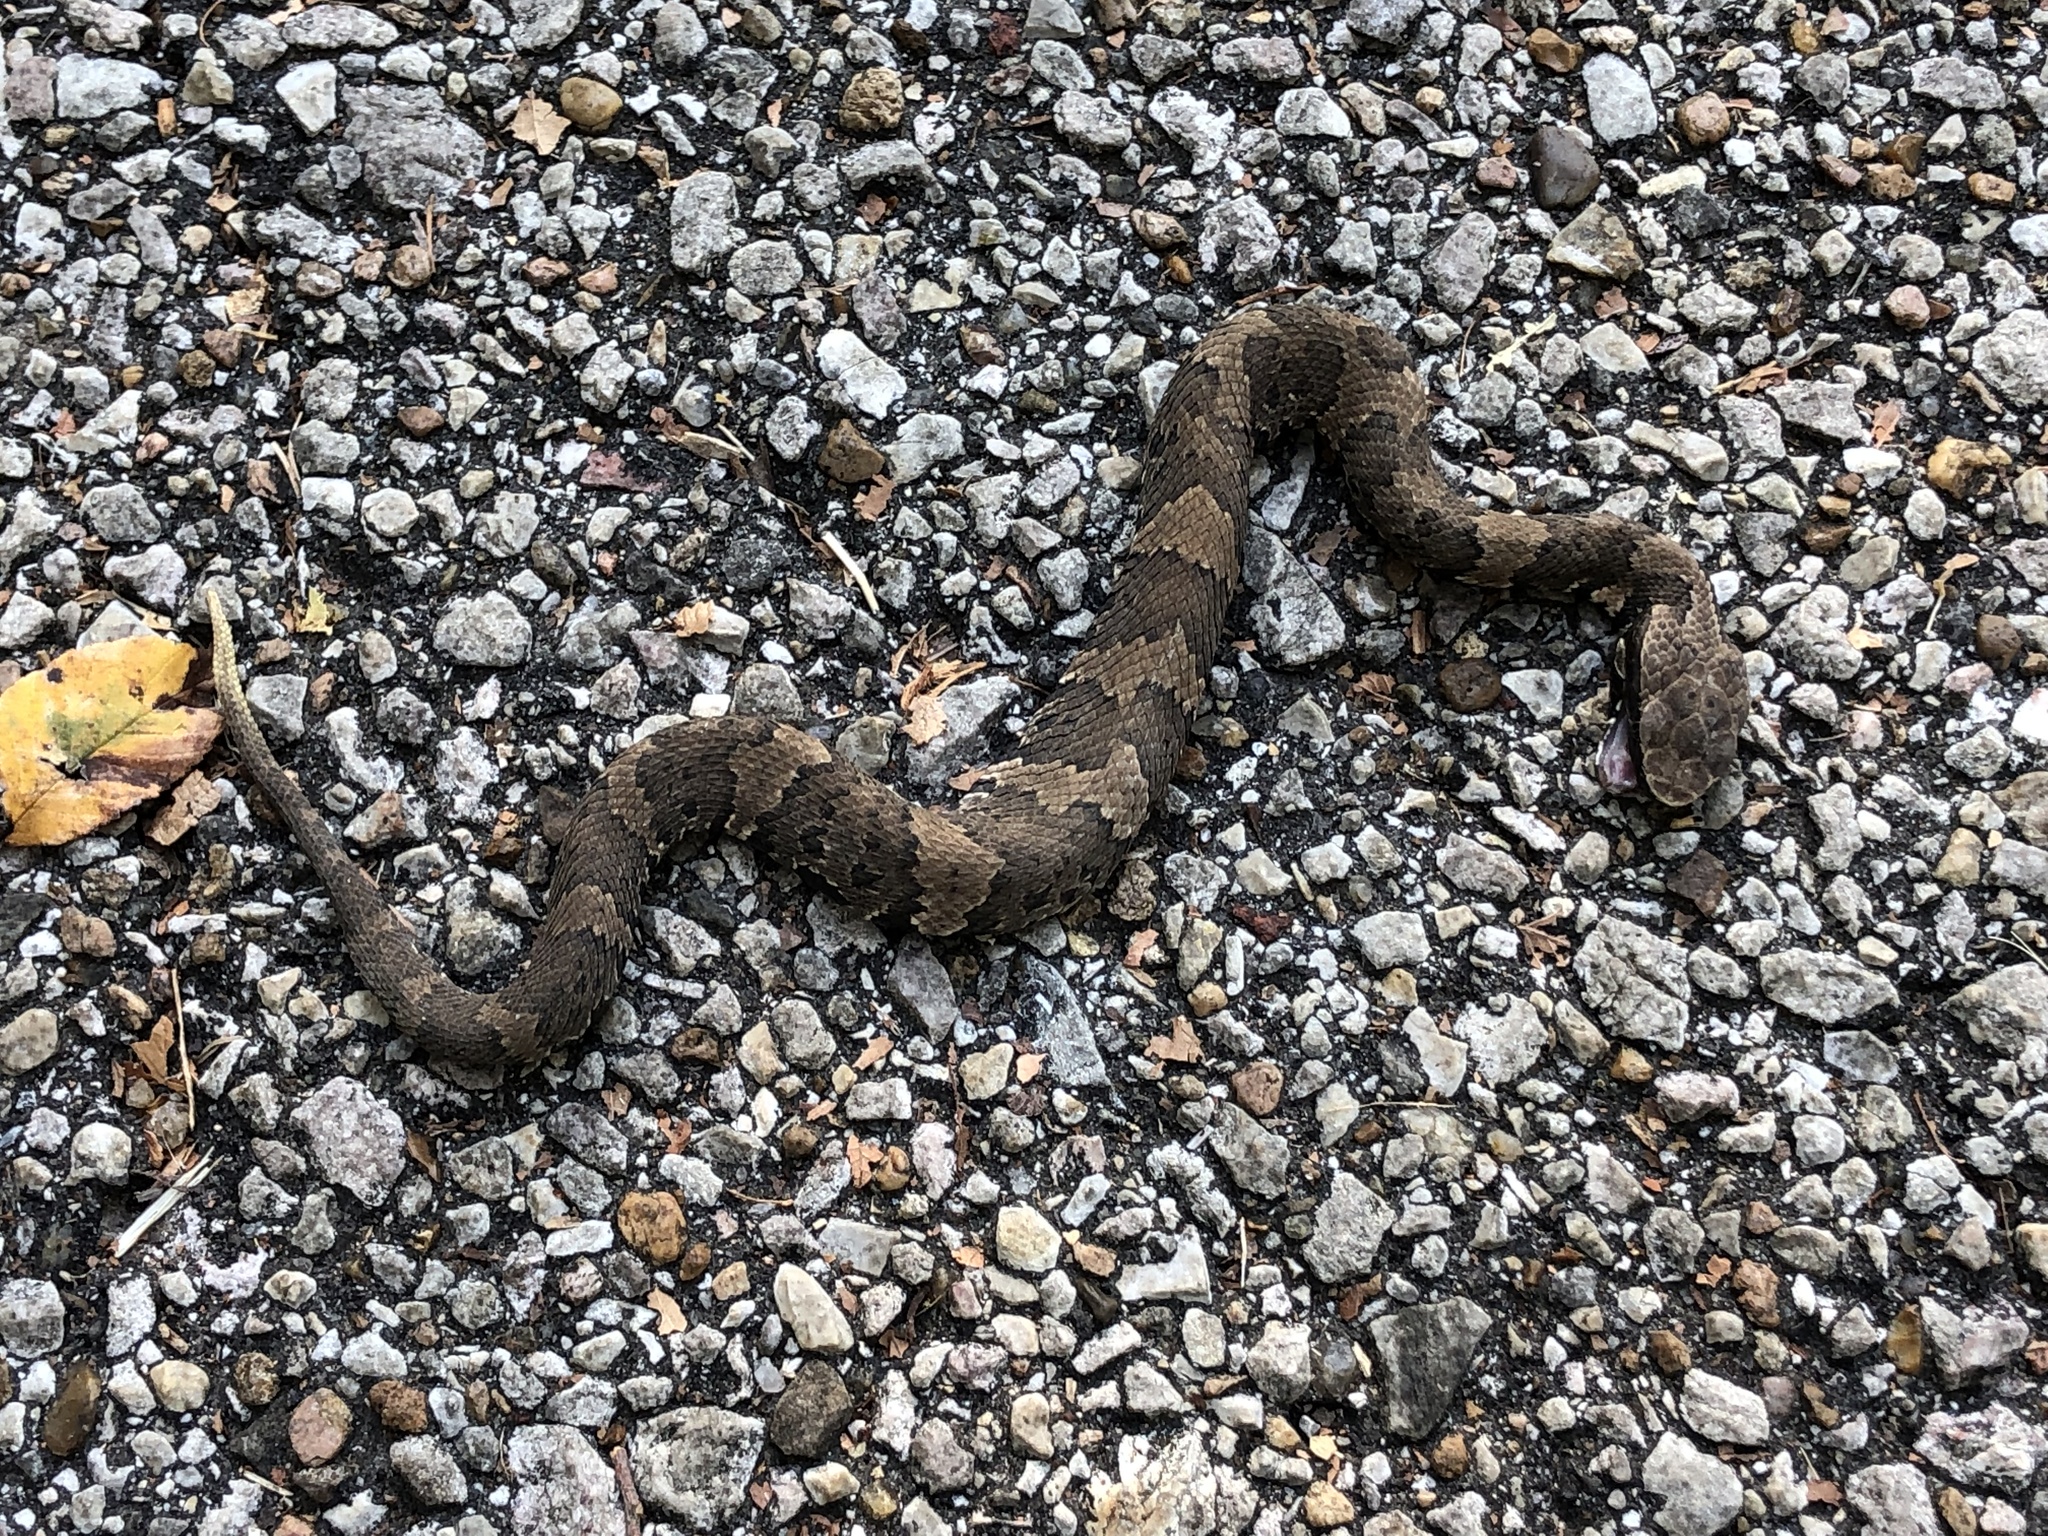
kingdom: Animalia
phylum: Chordata
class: Squamata
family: Viperidae
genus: Agkistrodon
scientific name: Agkistrodon piscivorus
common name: Cottonmouth
